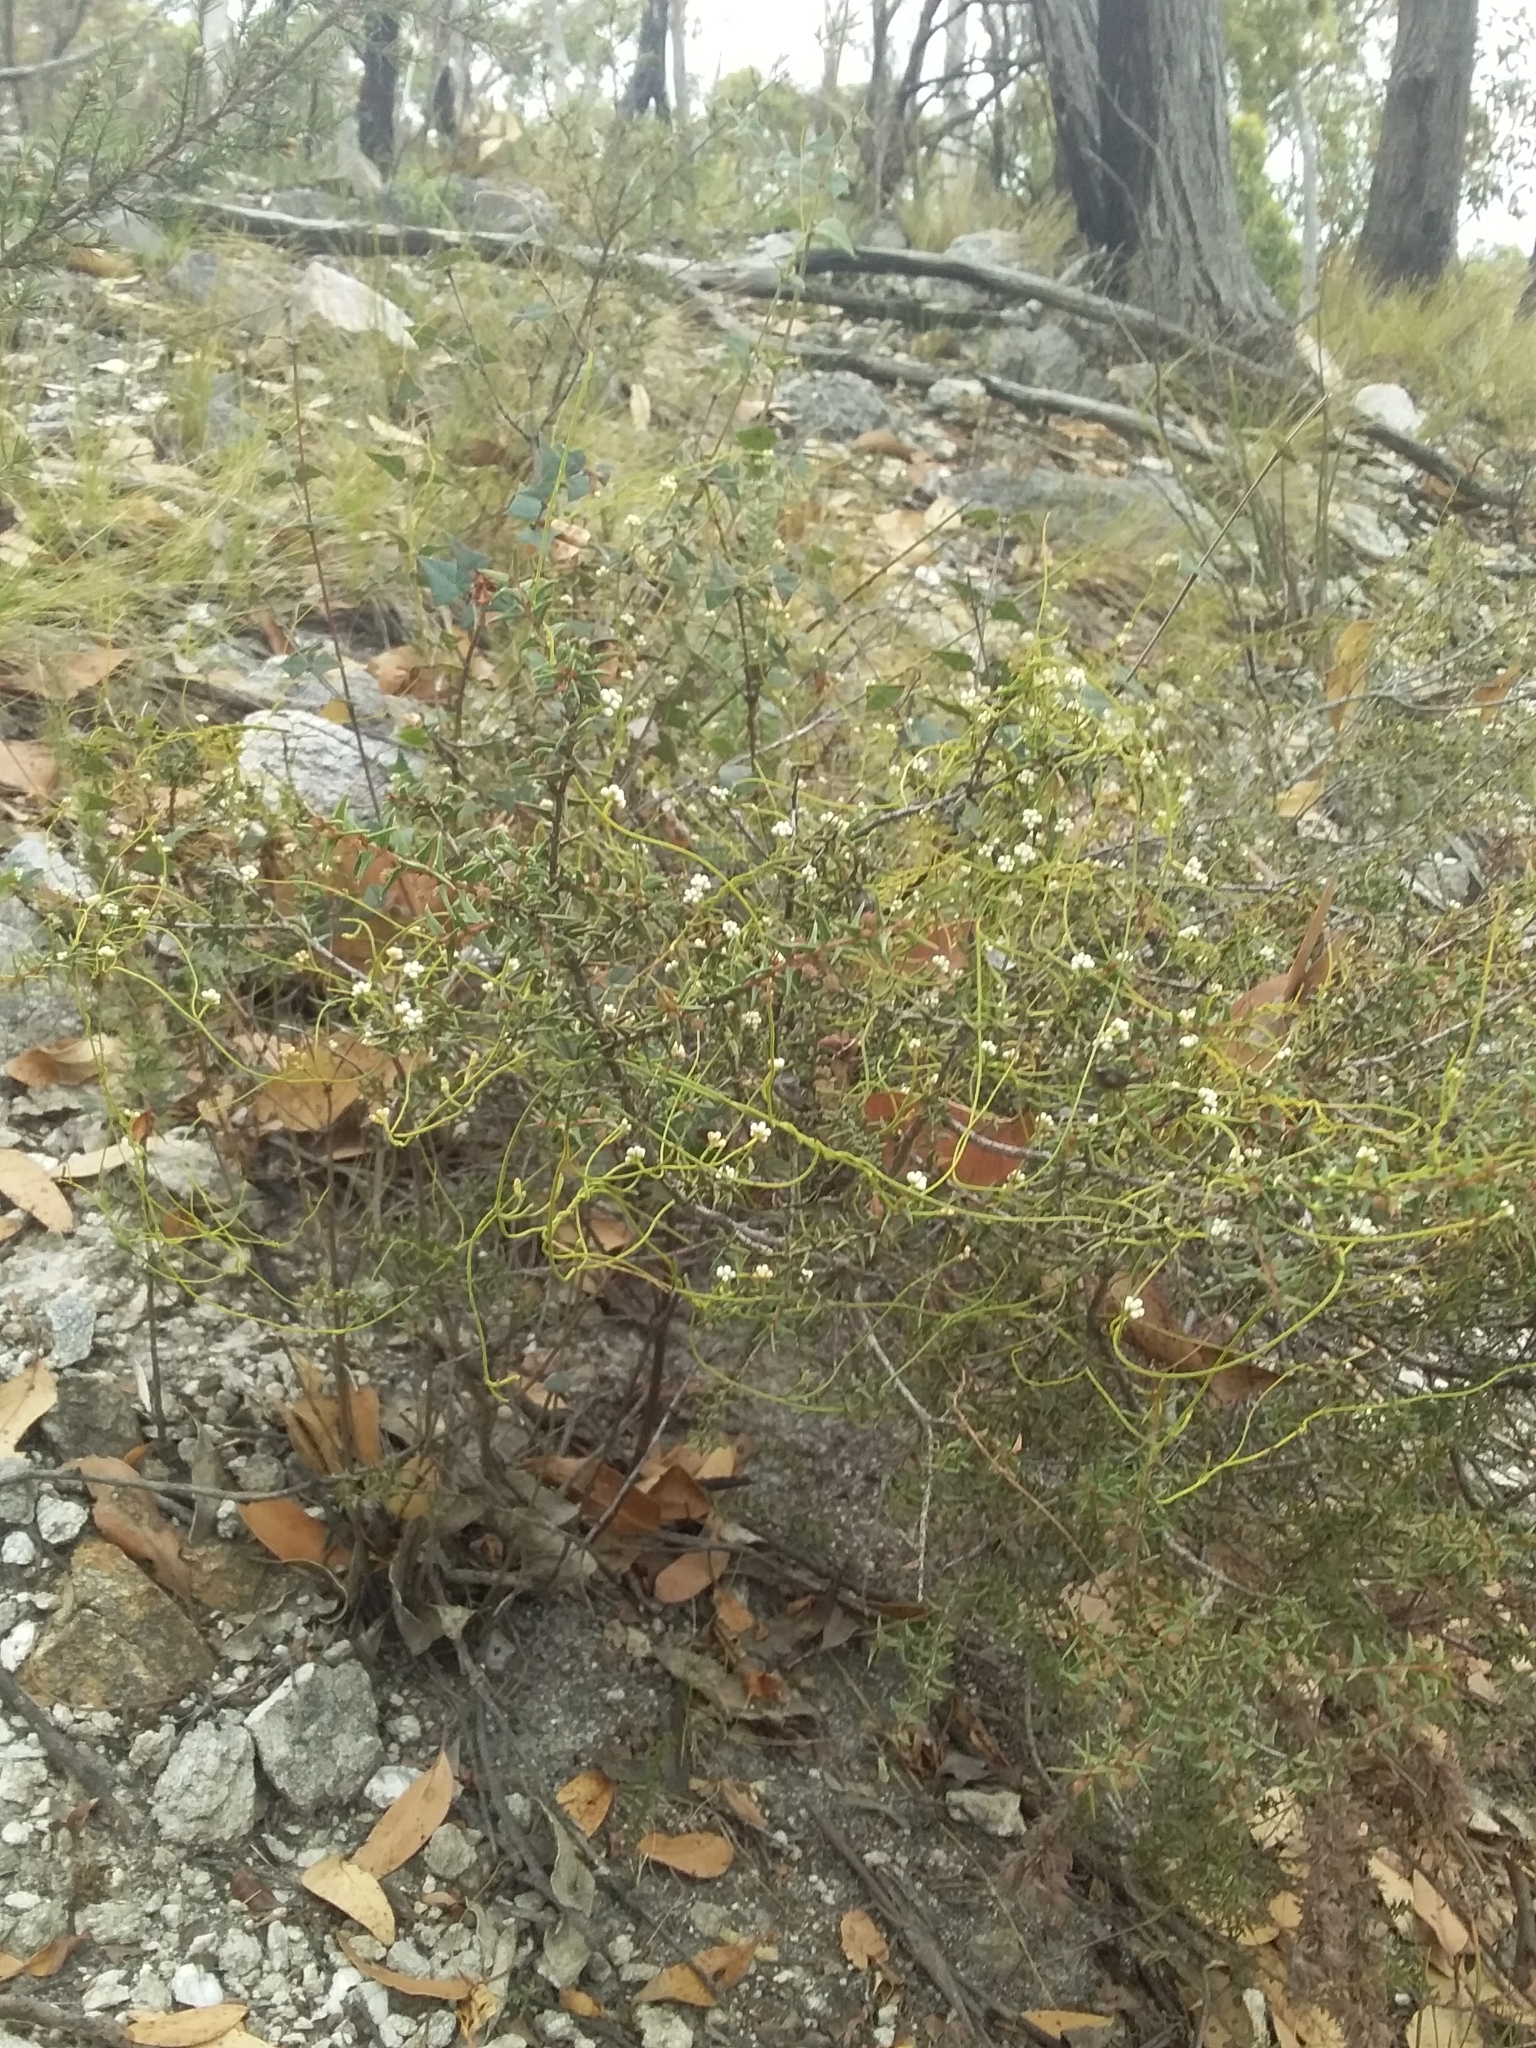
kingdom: Plantae
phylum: Tracheophyta
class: Magnoliopsida
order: Fabales
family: Fabaceae
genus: Acacia
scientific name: Acacia gunnii
